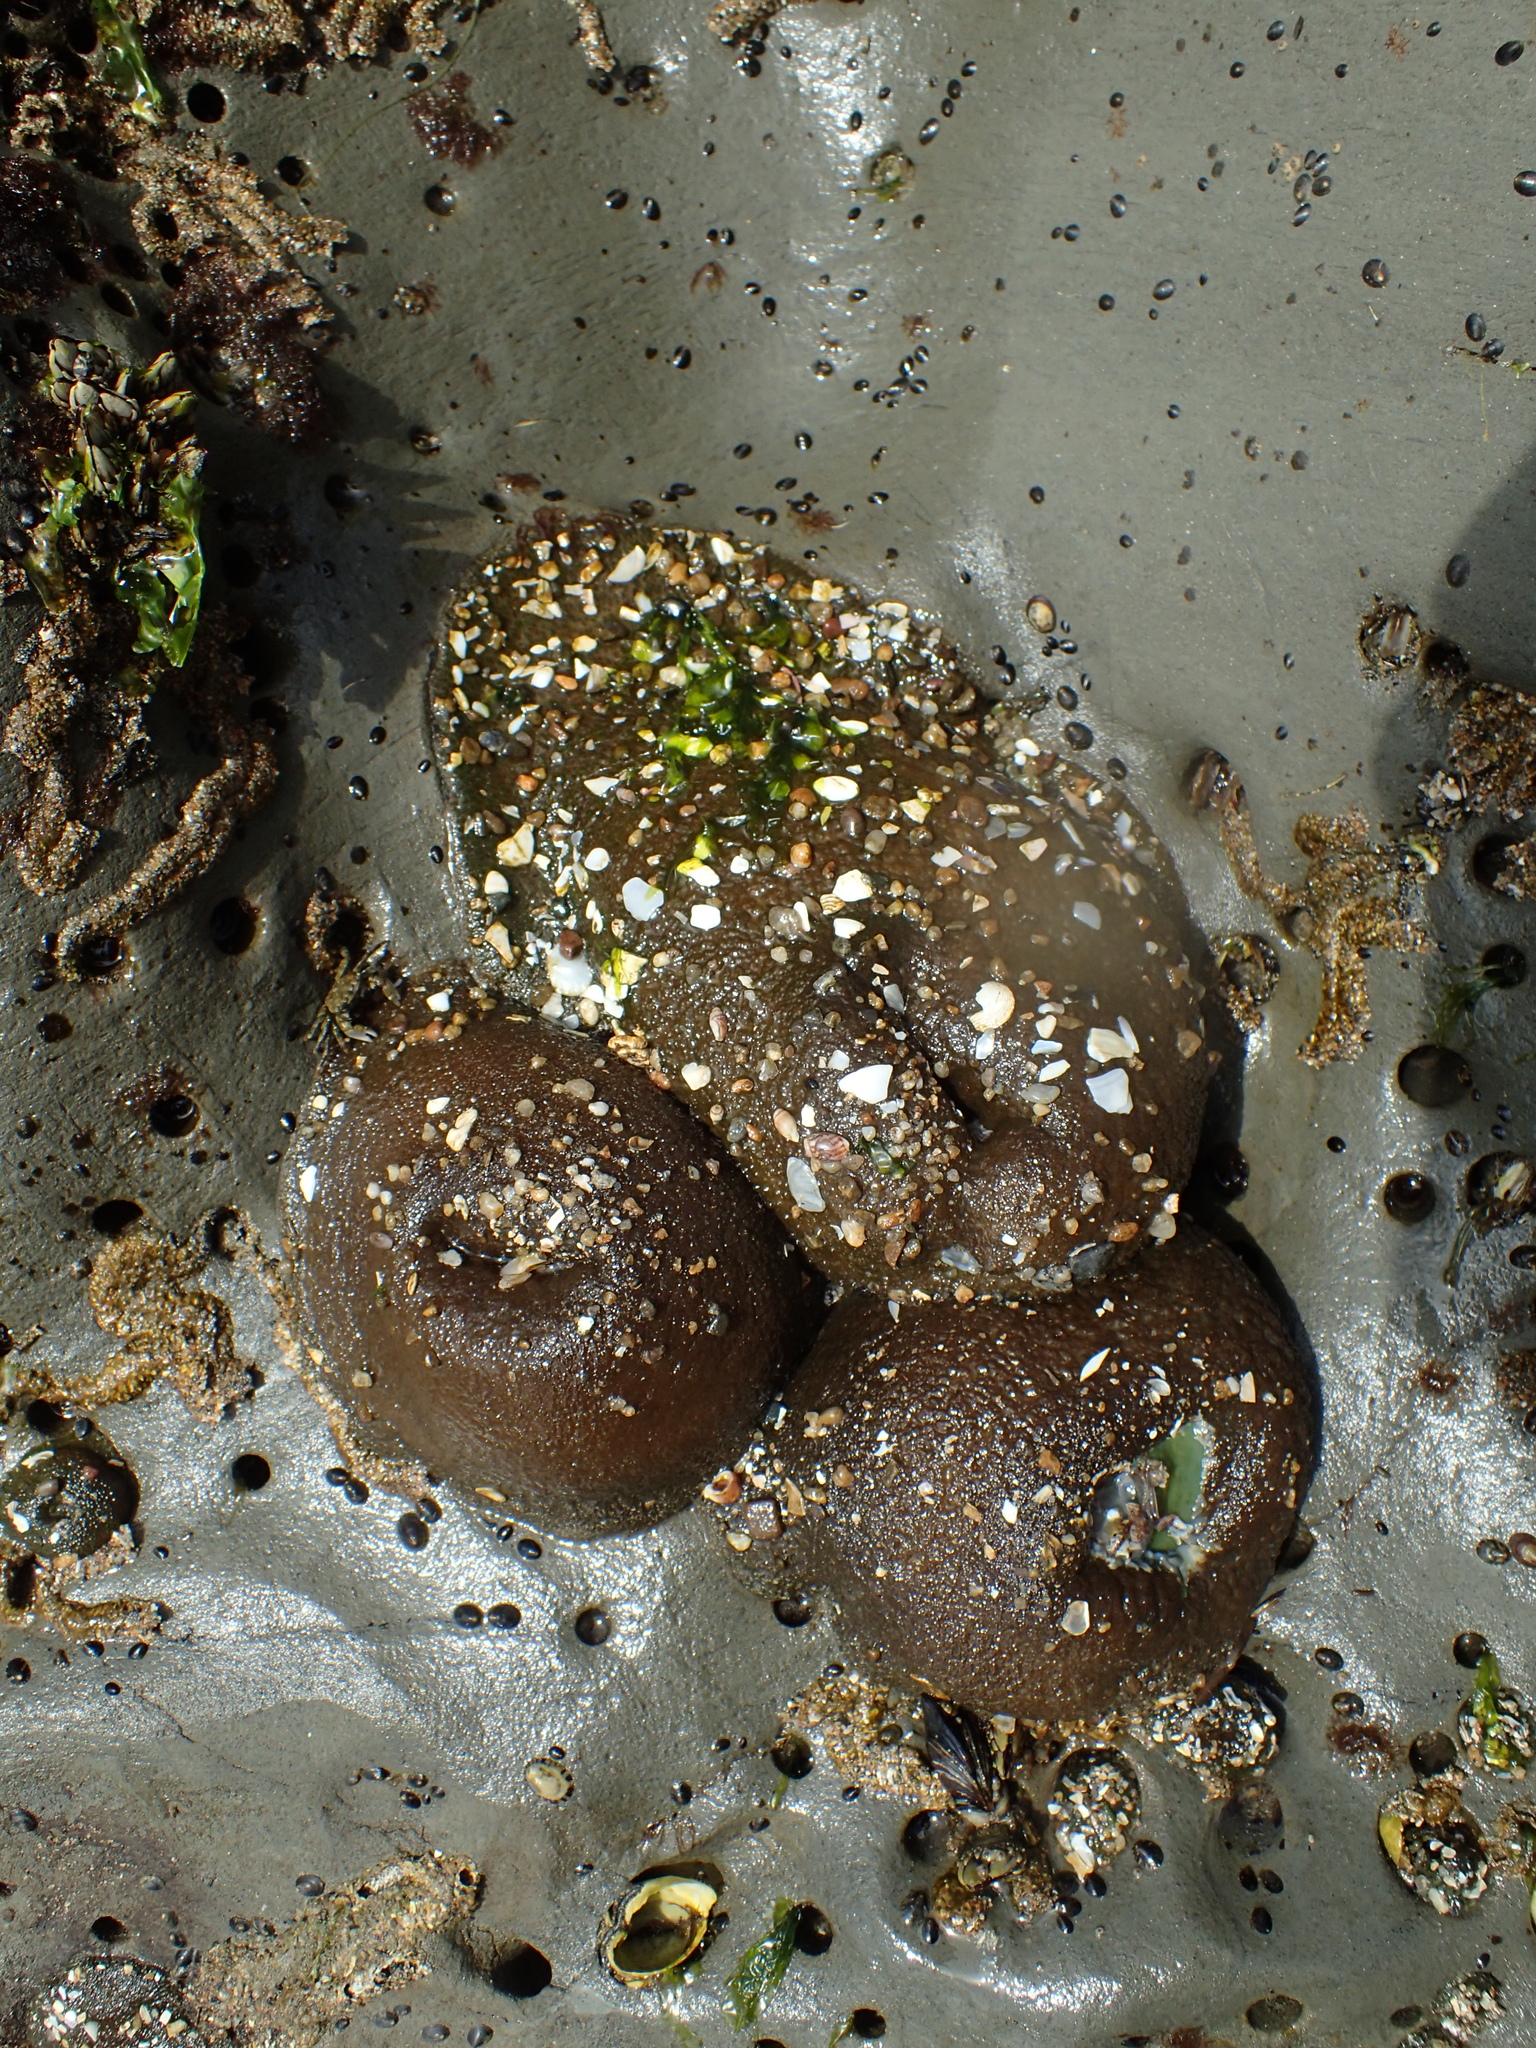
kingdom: Animalia
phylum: Cnidaria
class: Anthozoa
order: Actiniaria
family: Actiniidae
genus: Anthopleura
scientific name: Anthopleura xanthogrammica
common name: Giant green anemone
